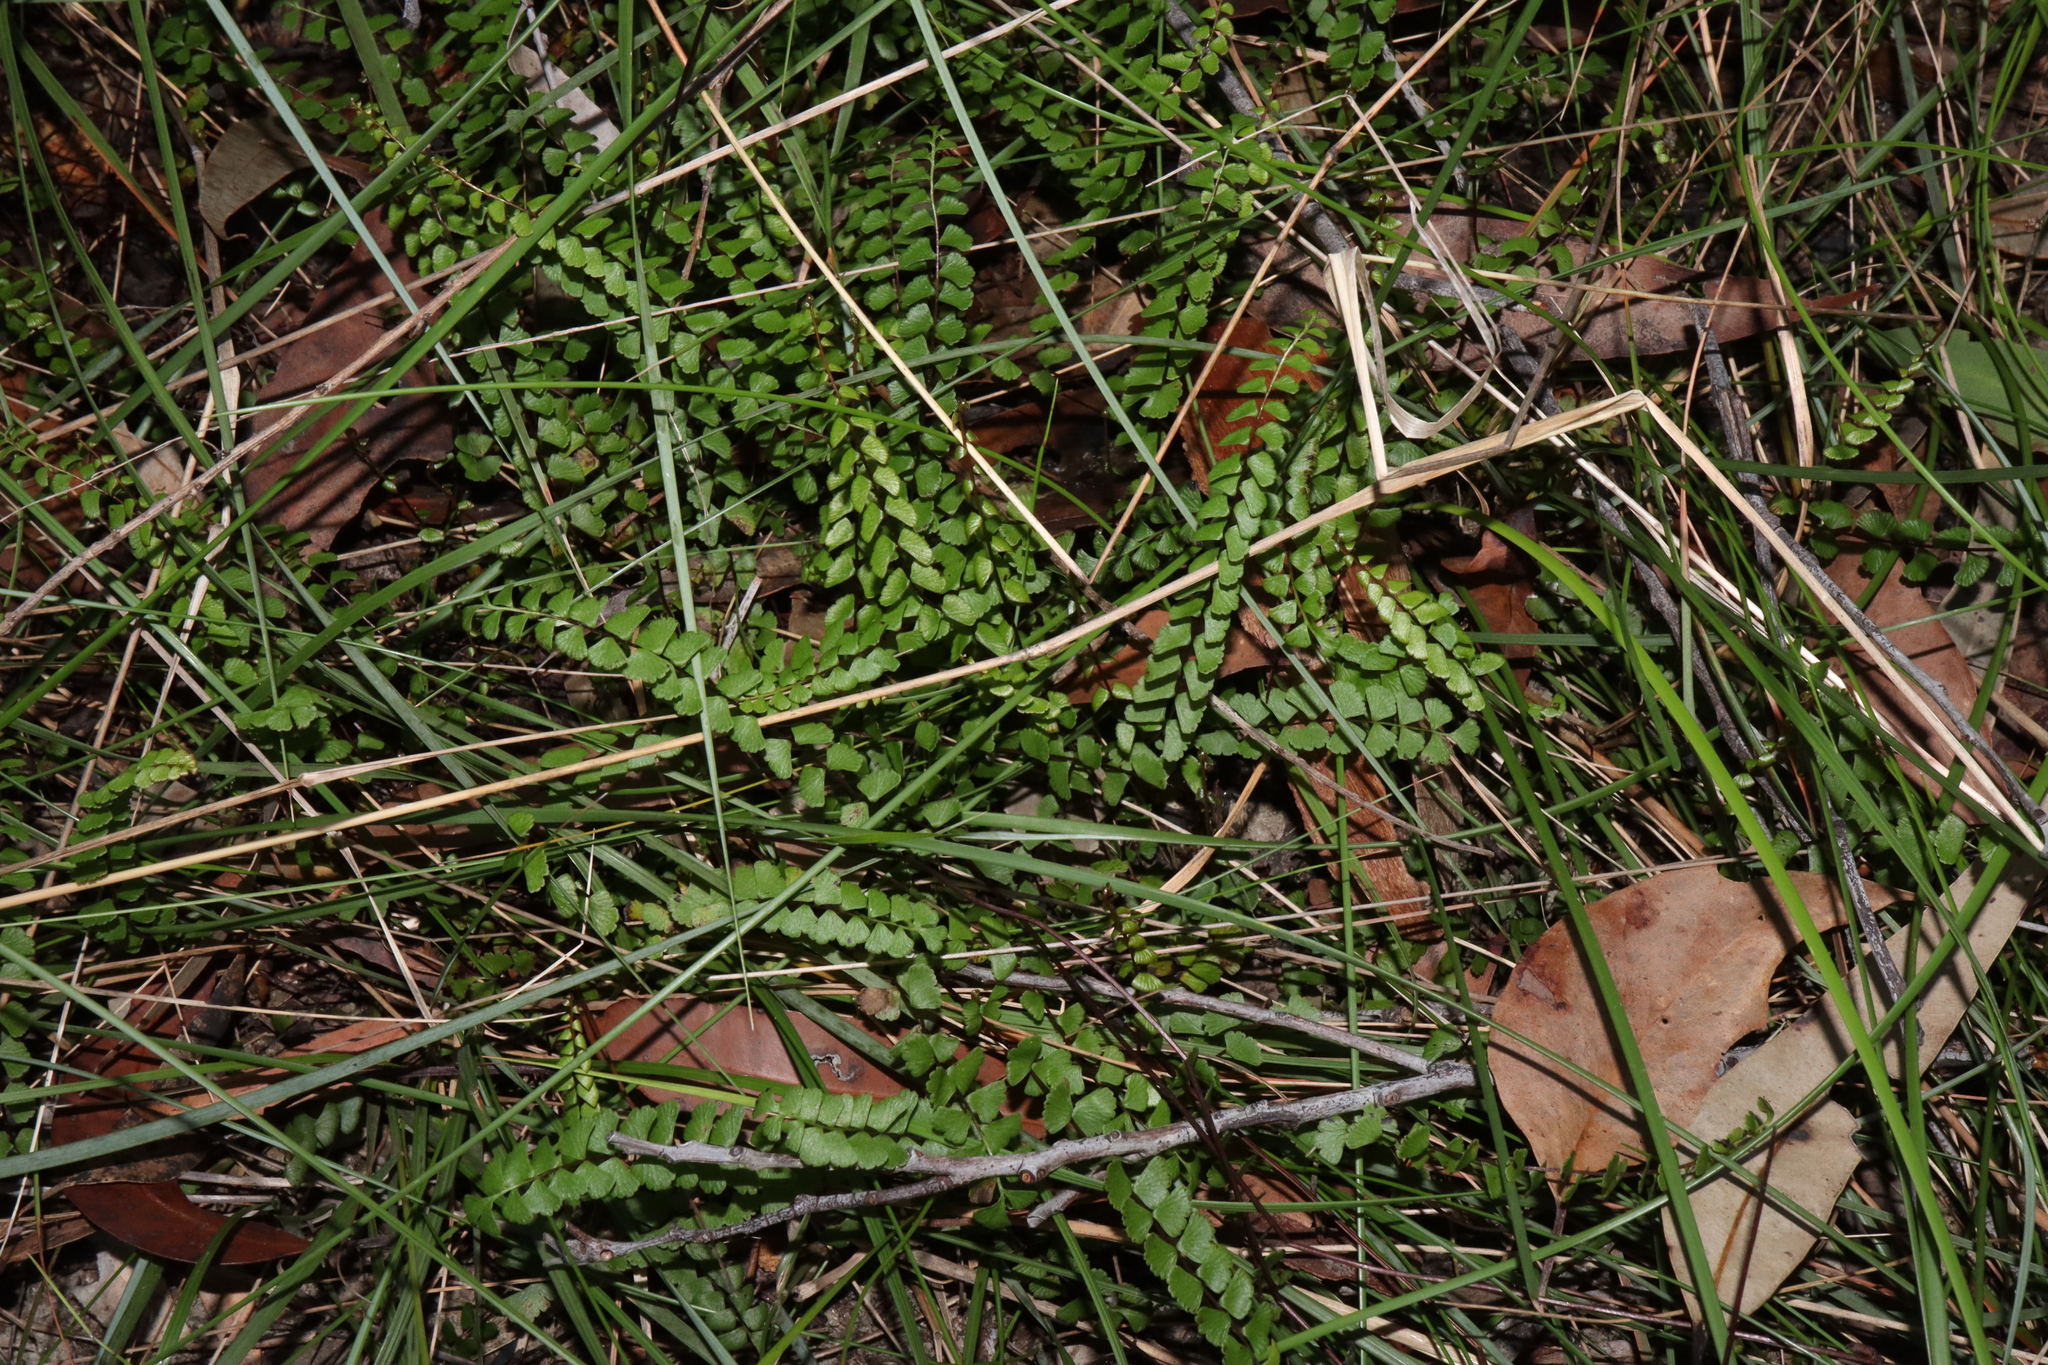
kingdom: Plantae
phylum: Tracheophyta
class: Polypodiopsida
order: Polypodiales
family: Lindsaeaceae
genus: Lindsaea
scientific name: Lindsaea linearis
